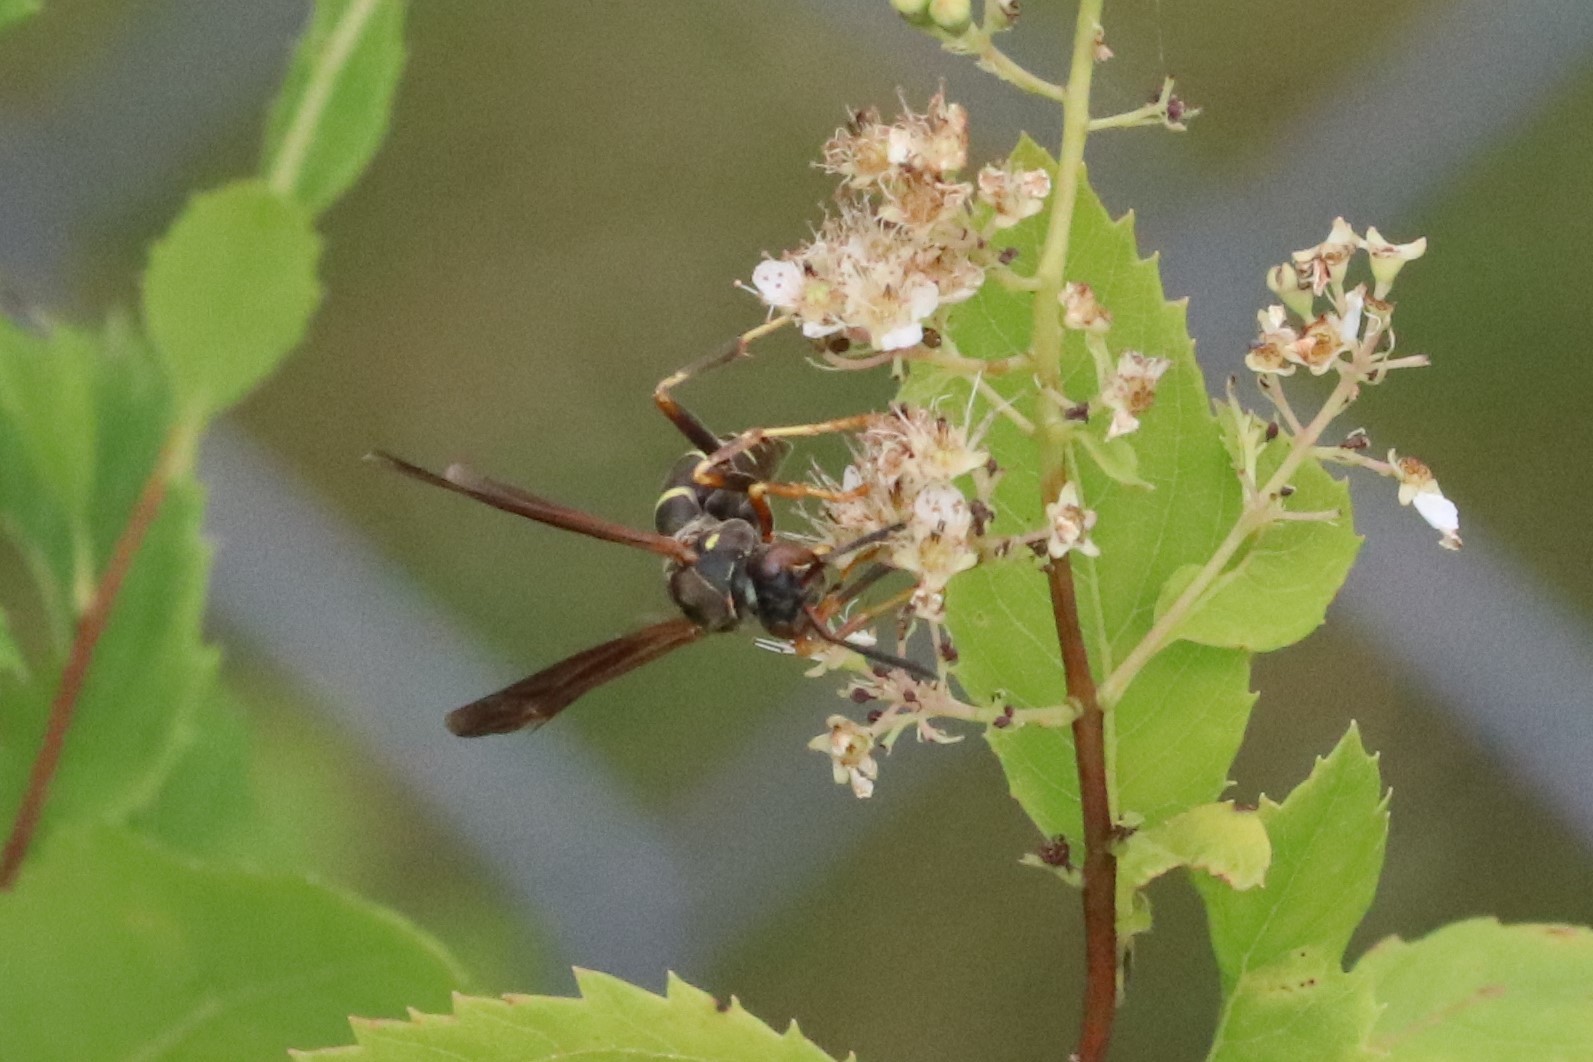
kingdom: Animalia
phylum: Arthropoda
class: Insecta
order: Hymenoptera
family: Eumenidae
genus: Polistes
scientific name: Polistes fuscatus
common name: Dark paper wasp
